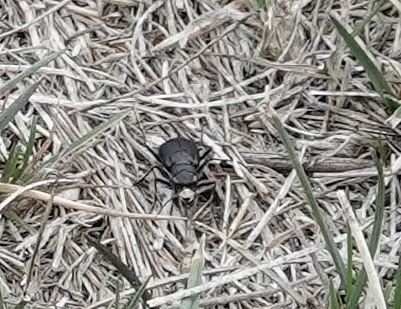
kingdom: Animalia
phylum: Arthropoda
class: Insecta
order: Coleoptera
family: Carabidae
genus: Cicindela
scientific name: Cicindela nebraskana
